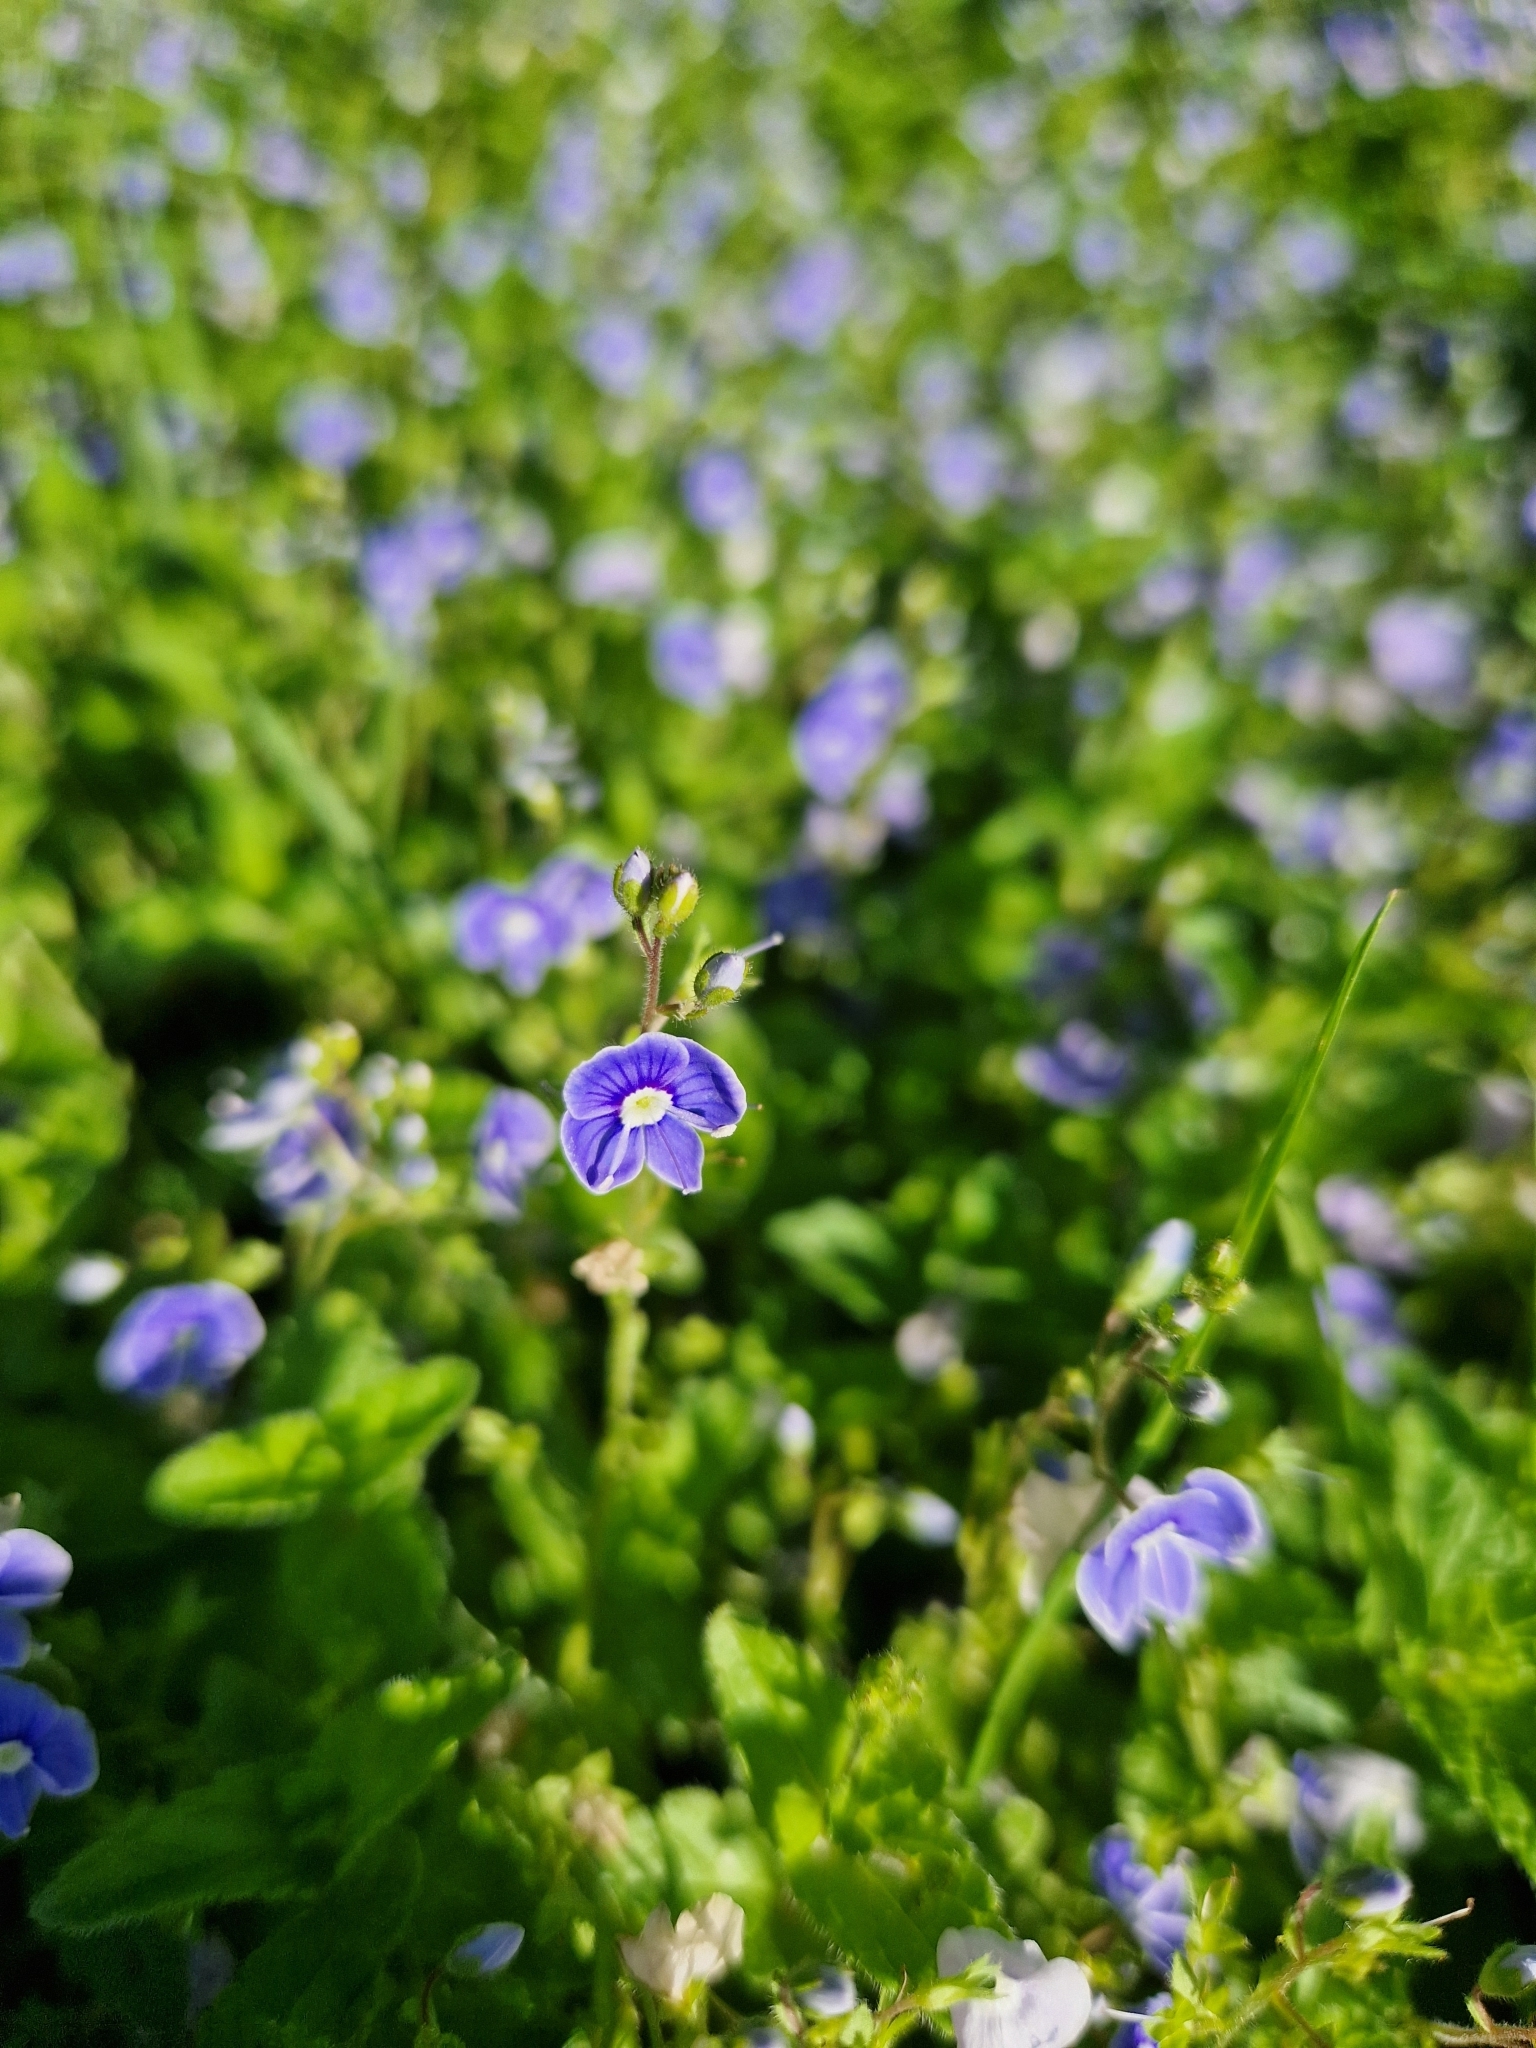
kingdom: Plantae
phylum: Tracheophyta
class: Magnoliopsida
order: Lamiales
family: Plantaginaceae
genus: Veronica
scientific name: Veronica chamaedrys
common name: Germander speedwell
